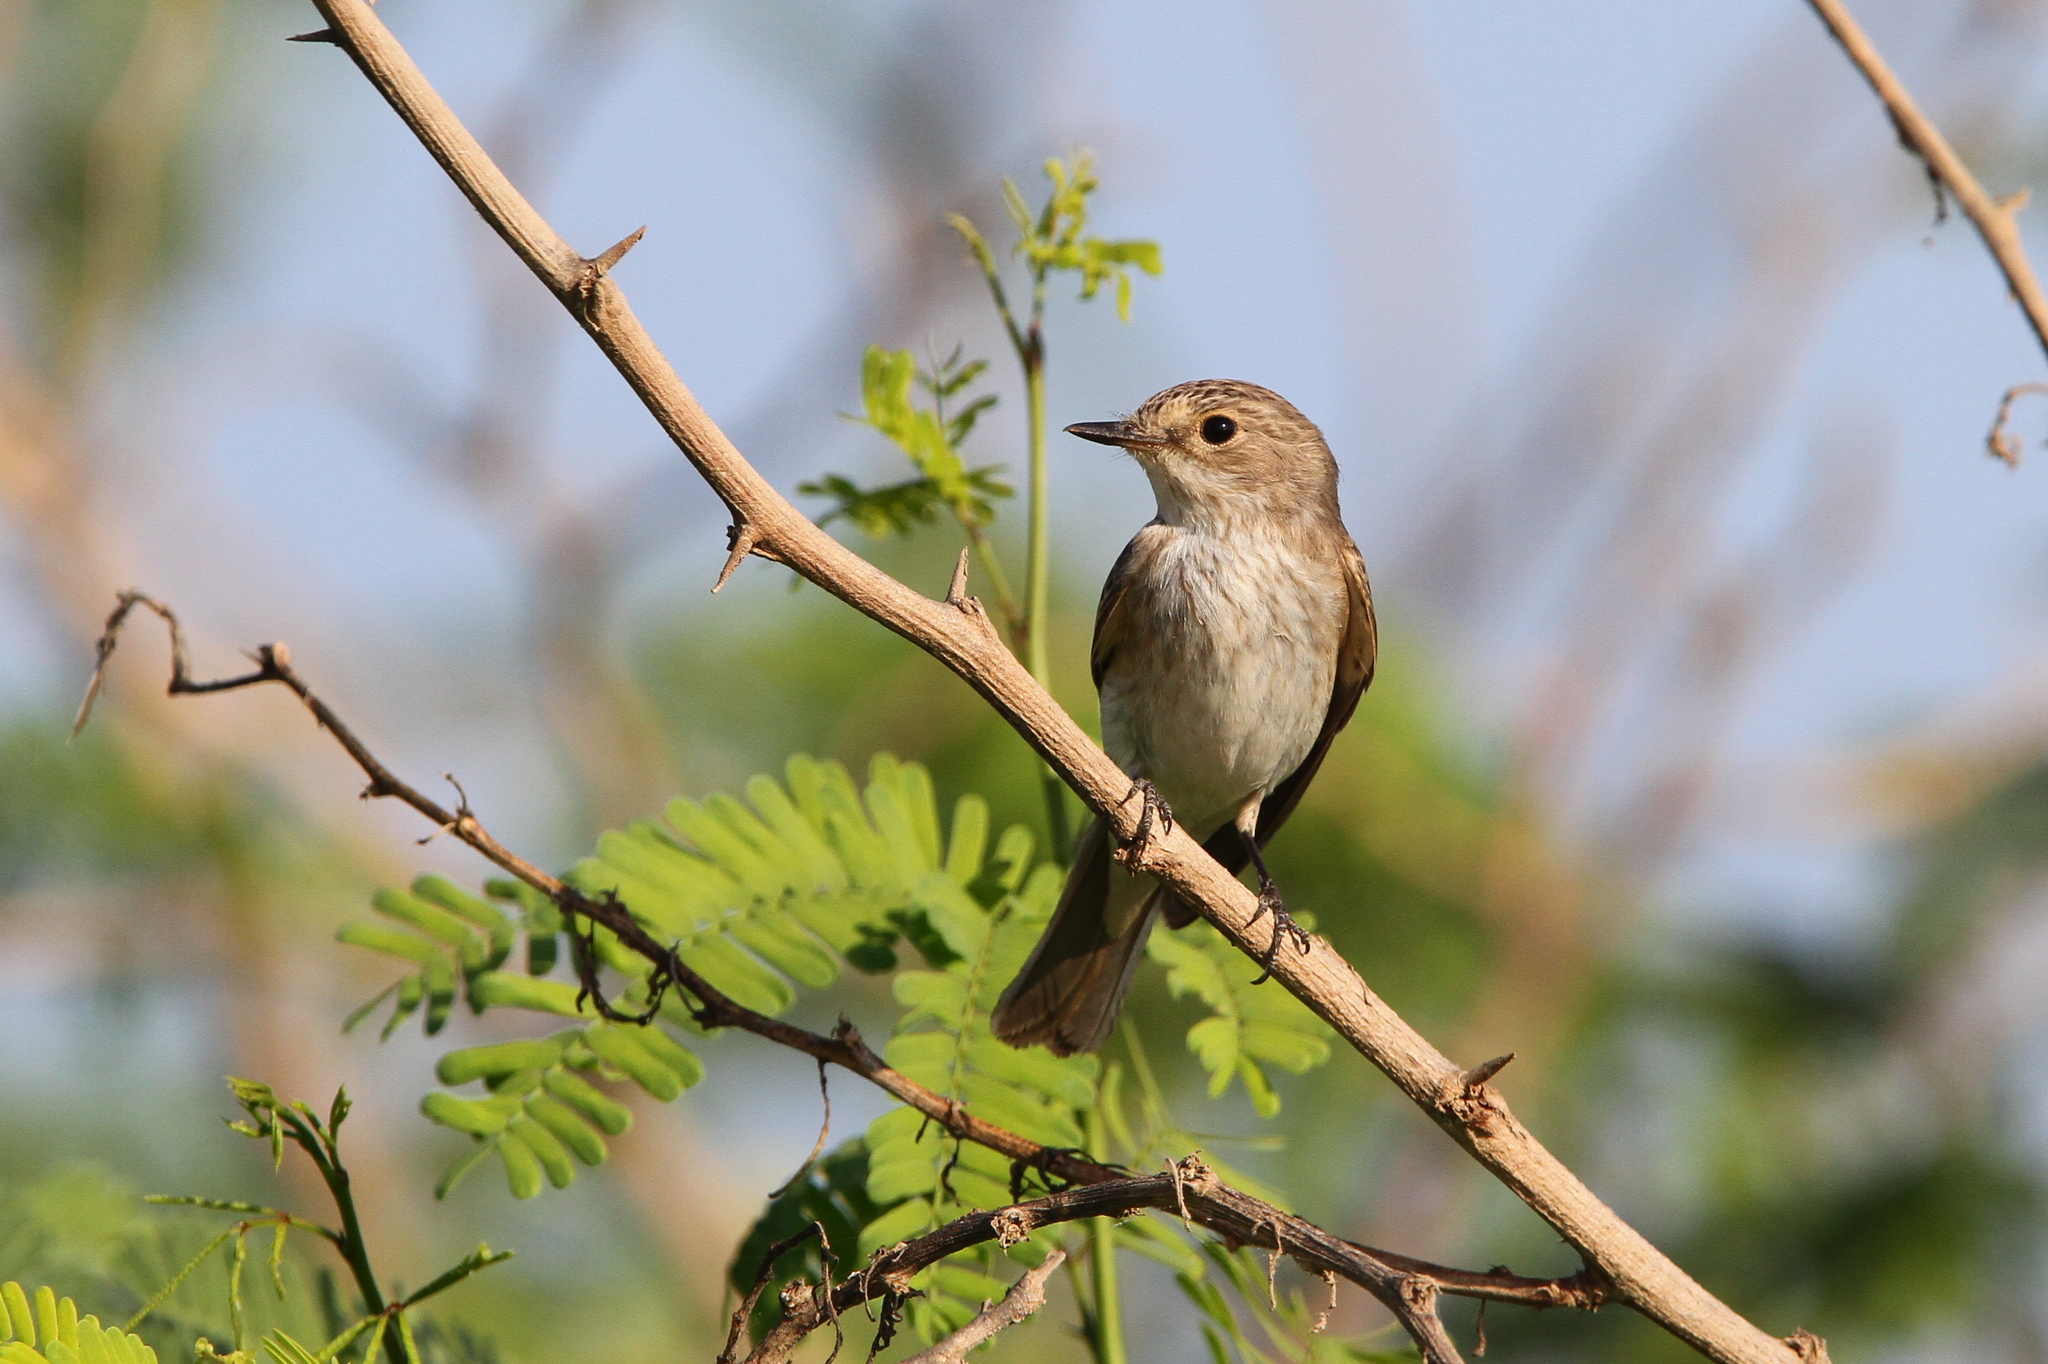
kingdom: Animalia
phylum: Chordata
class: Aves
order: Passeriformes
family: Muscicapidae
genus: Muscicapa
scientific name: Muscicapa striata
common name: Spotted flycatcher
